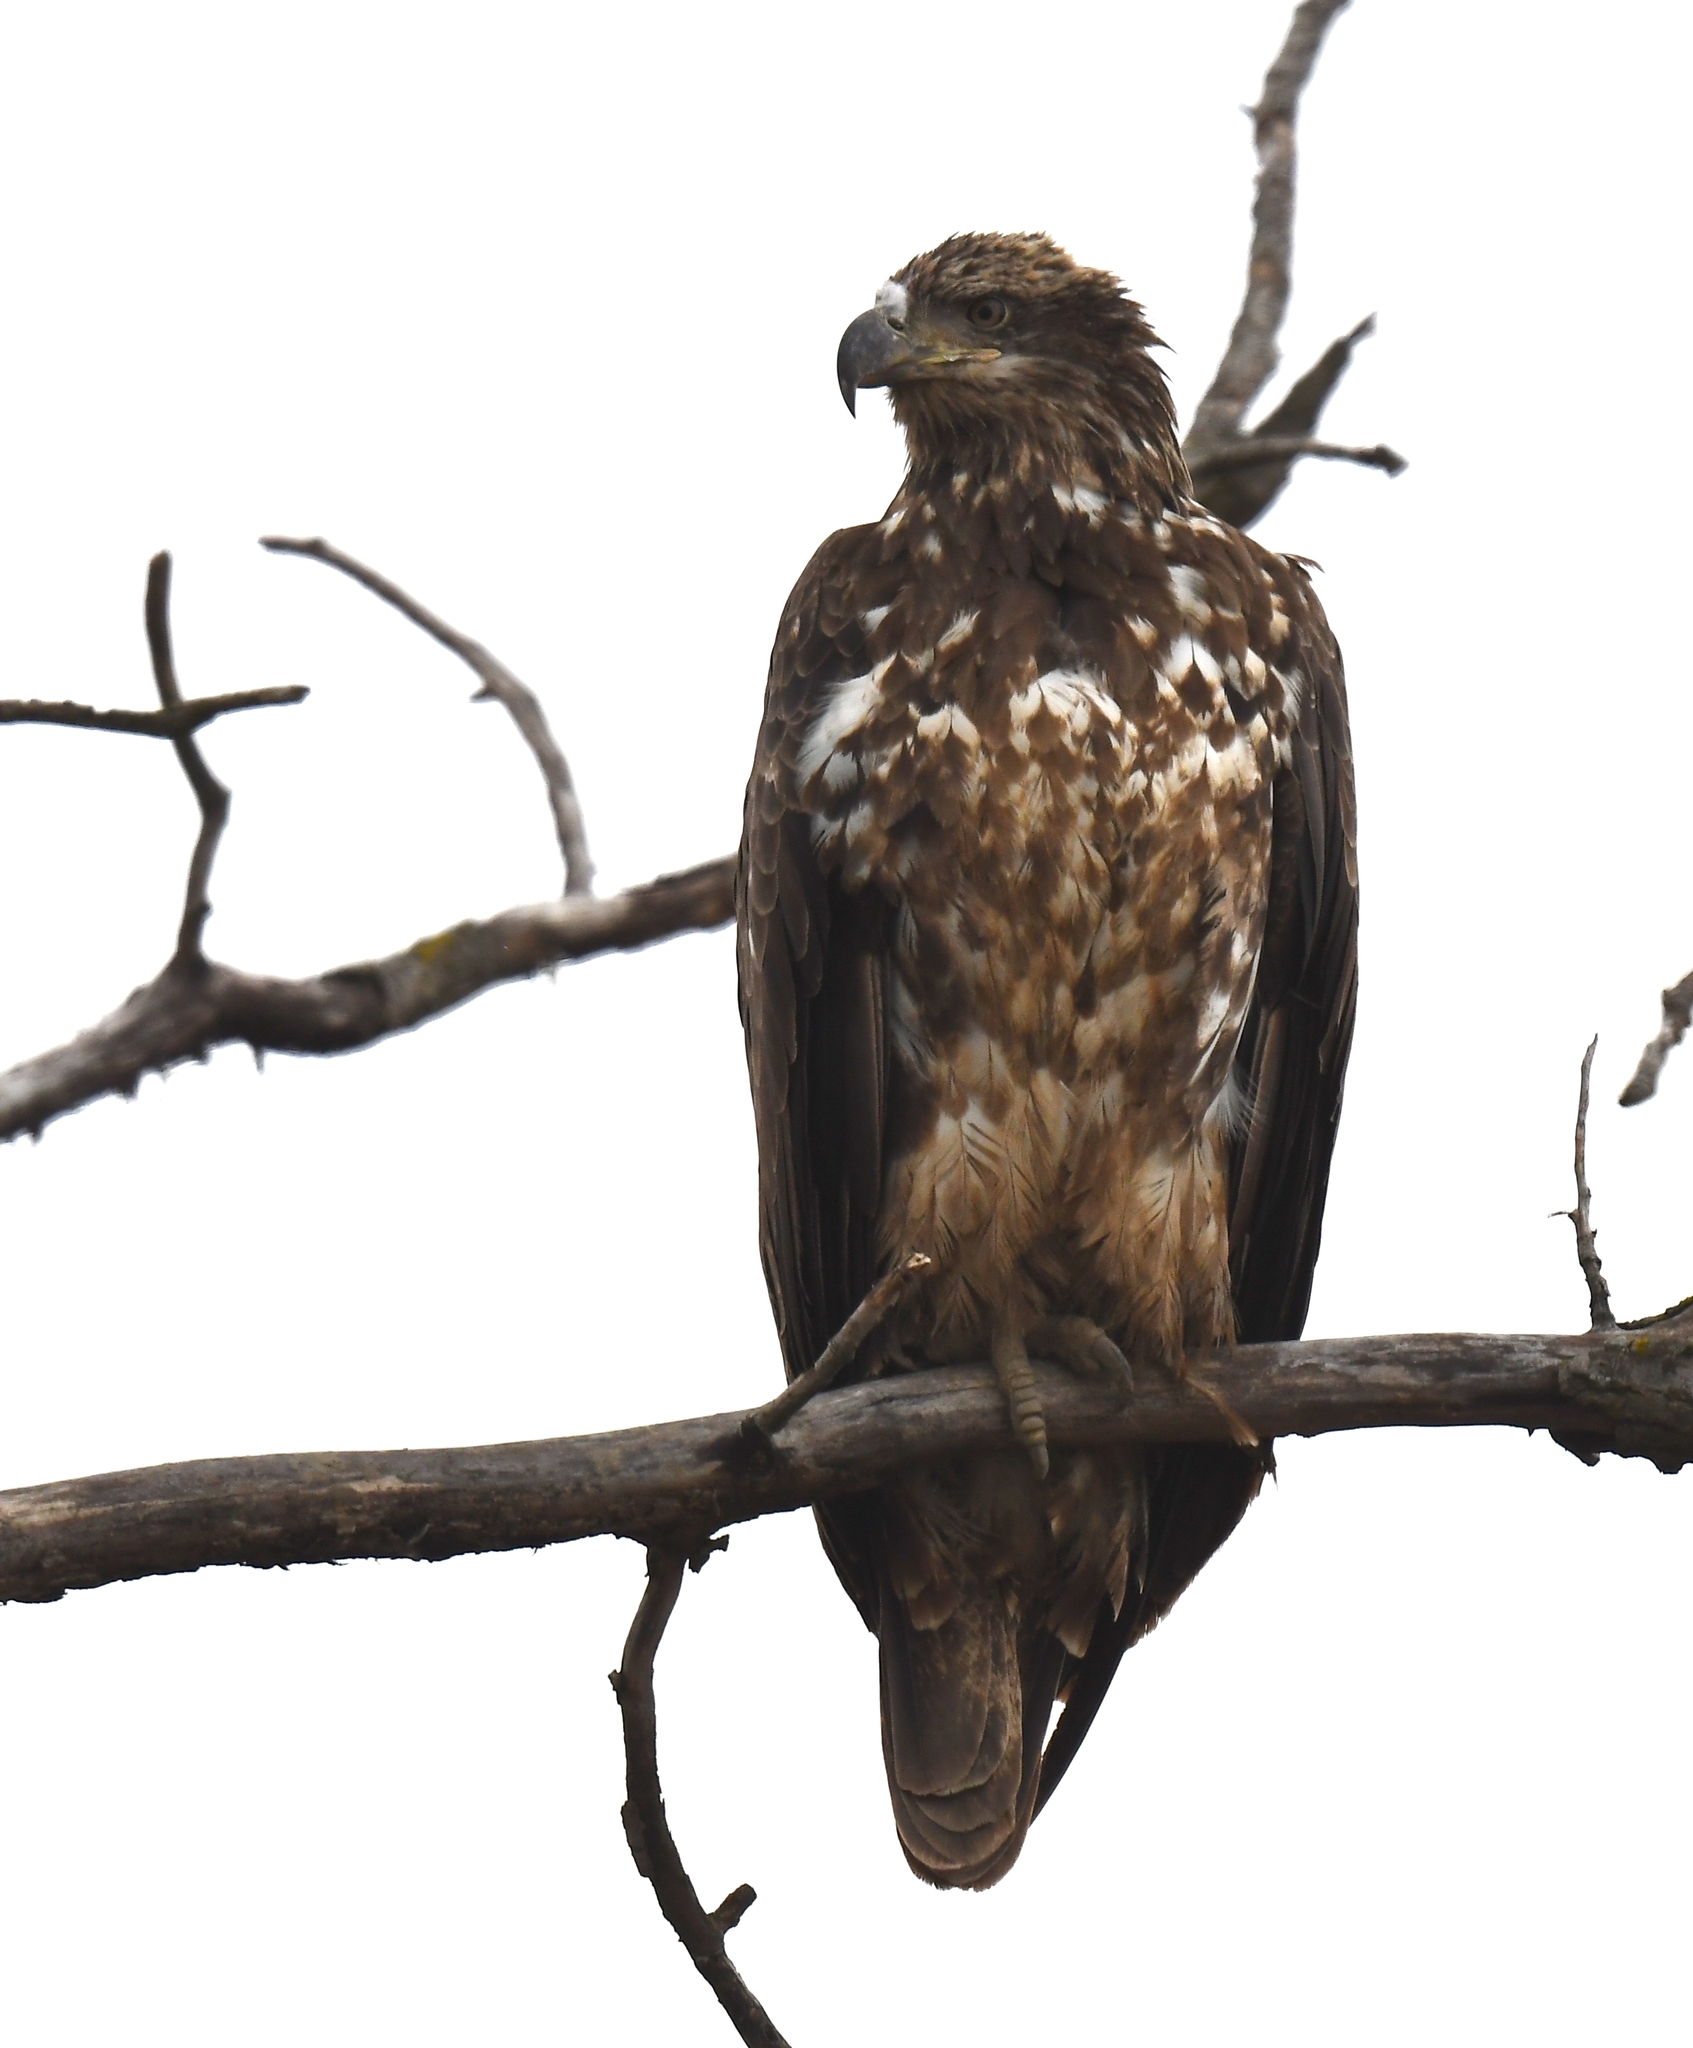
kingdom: Animalia
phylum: Chordata
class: Aves
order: Accipitriformes
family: Accipitridae
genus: Haliaeetus
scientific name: Haliaeetus leucocephalus
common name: Bald eagle
